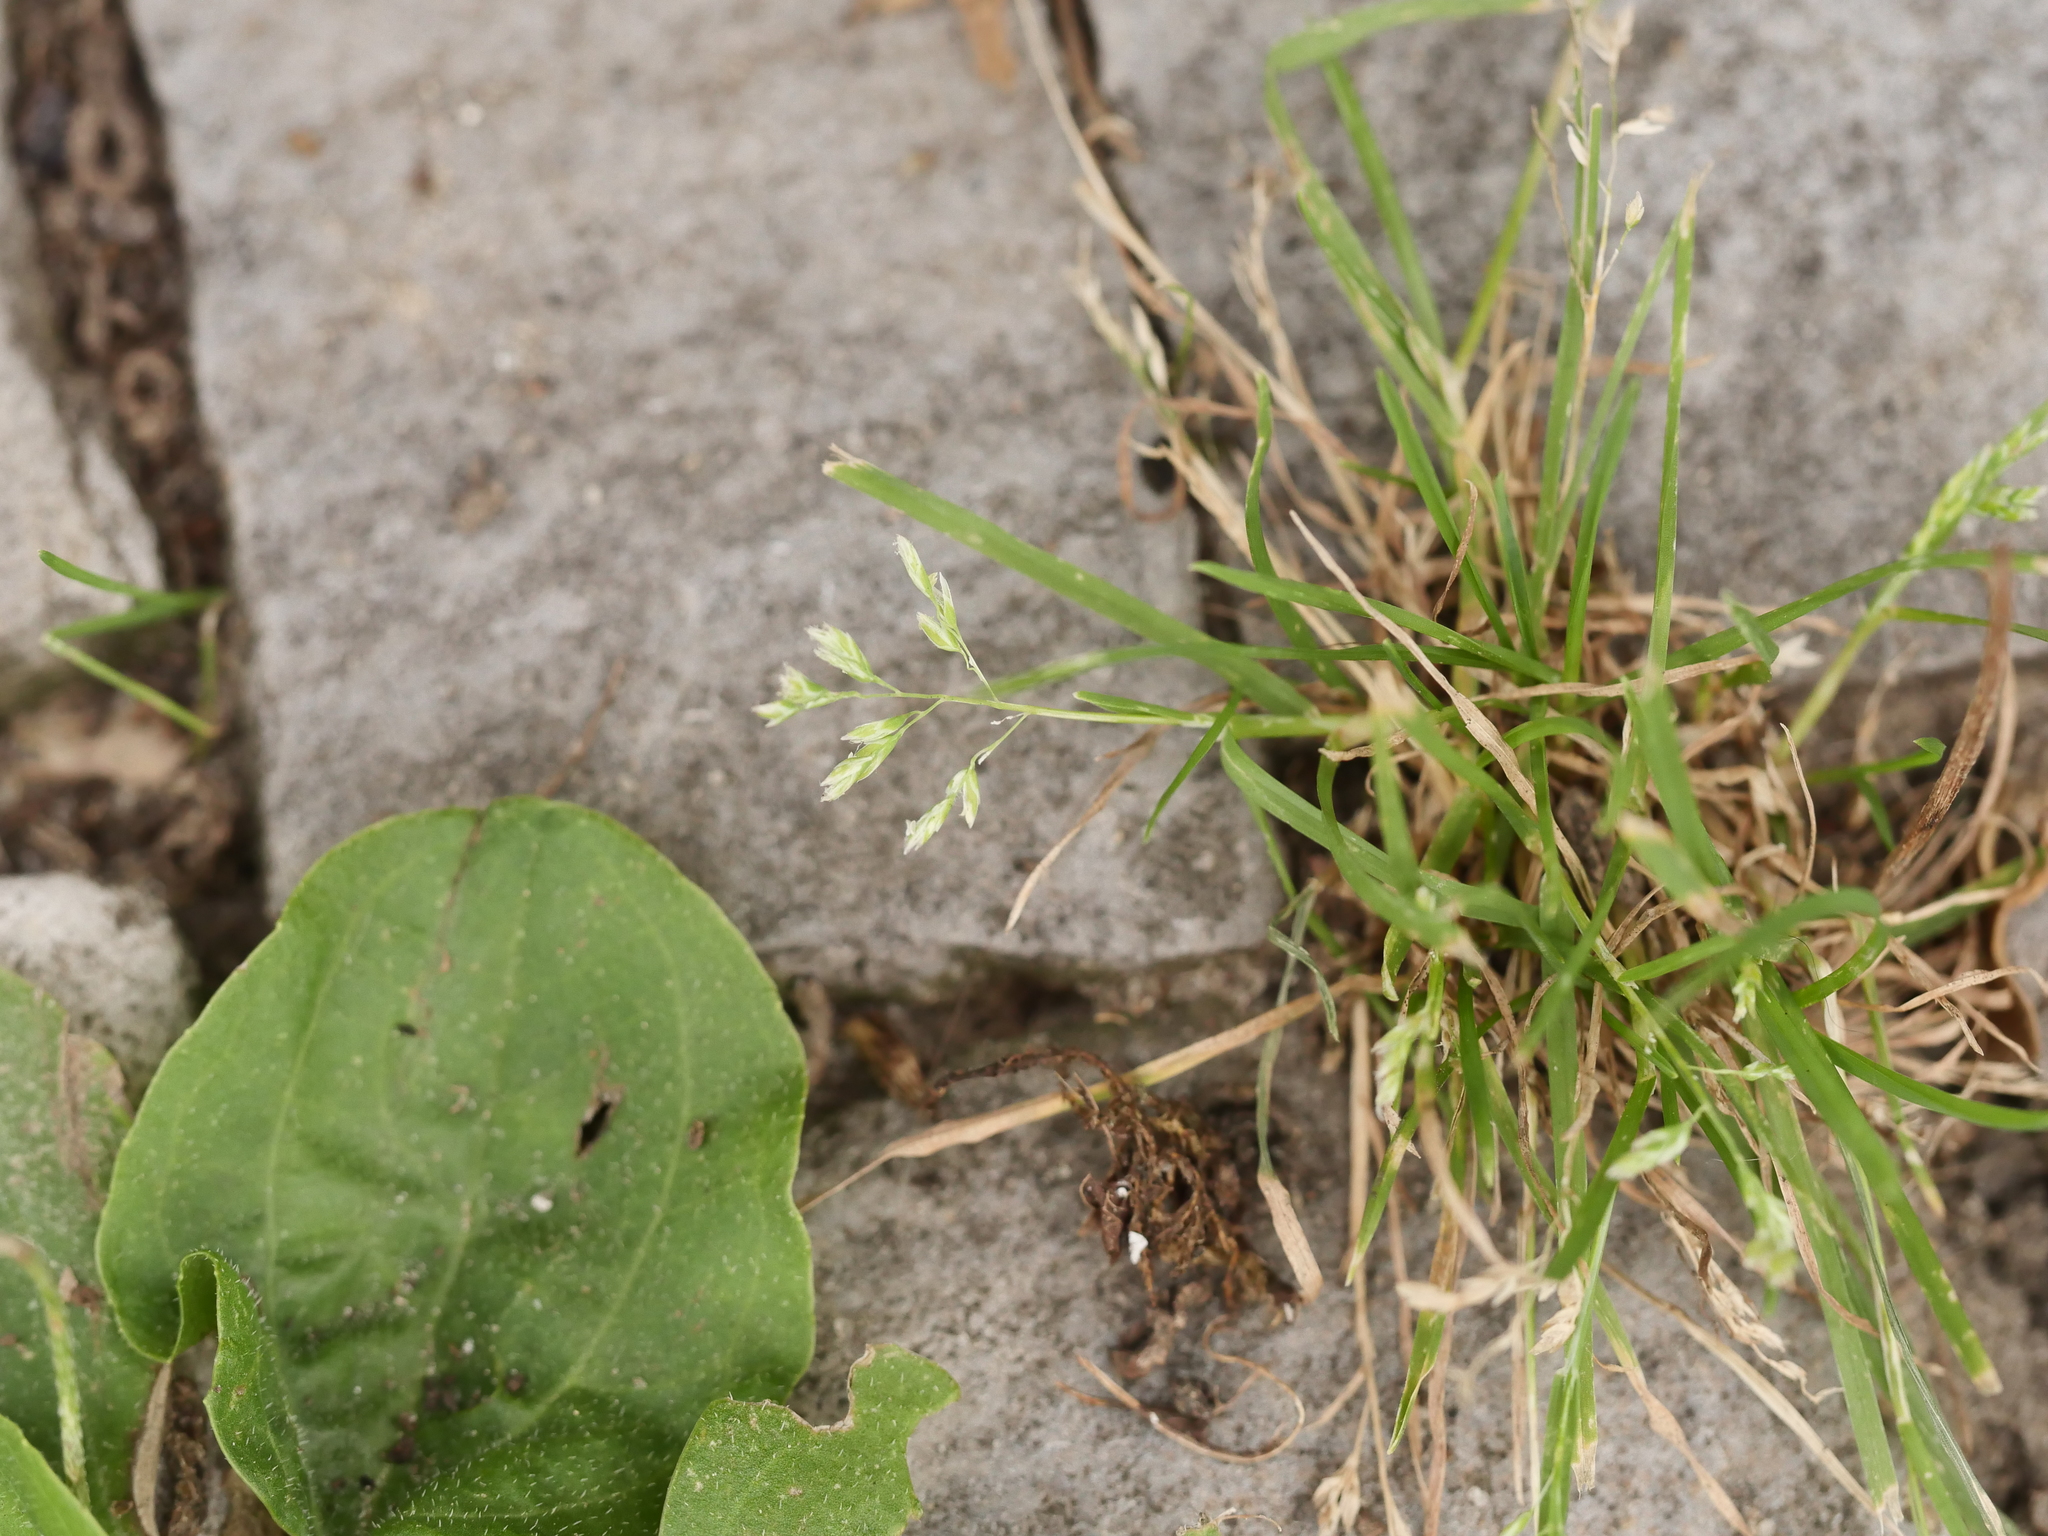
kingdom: Plantae
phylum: Tracheophyta
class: Liliopsida
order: Poales
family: Poaceae
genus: Poa
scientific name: Poa annua
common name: Annual bluegrass
